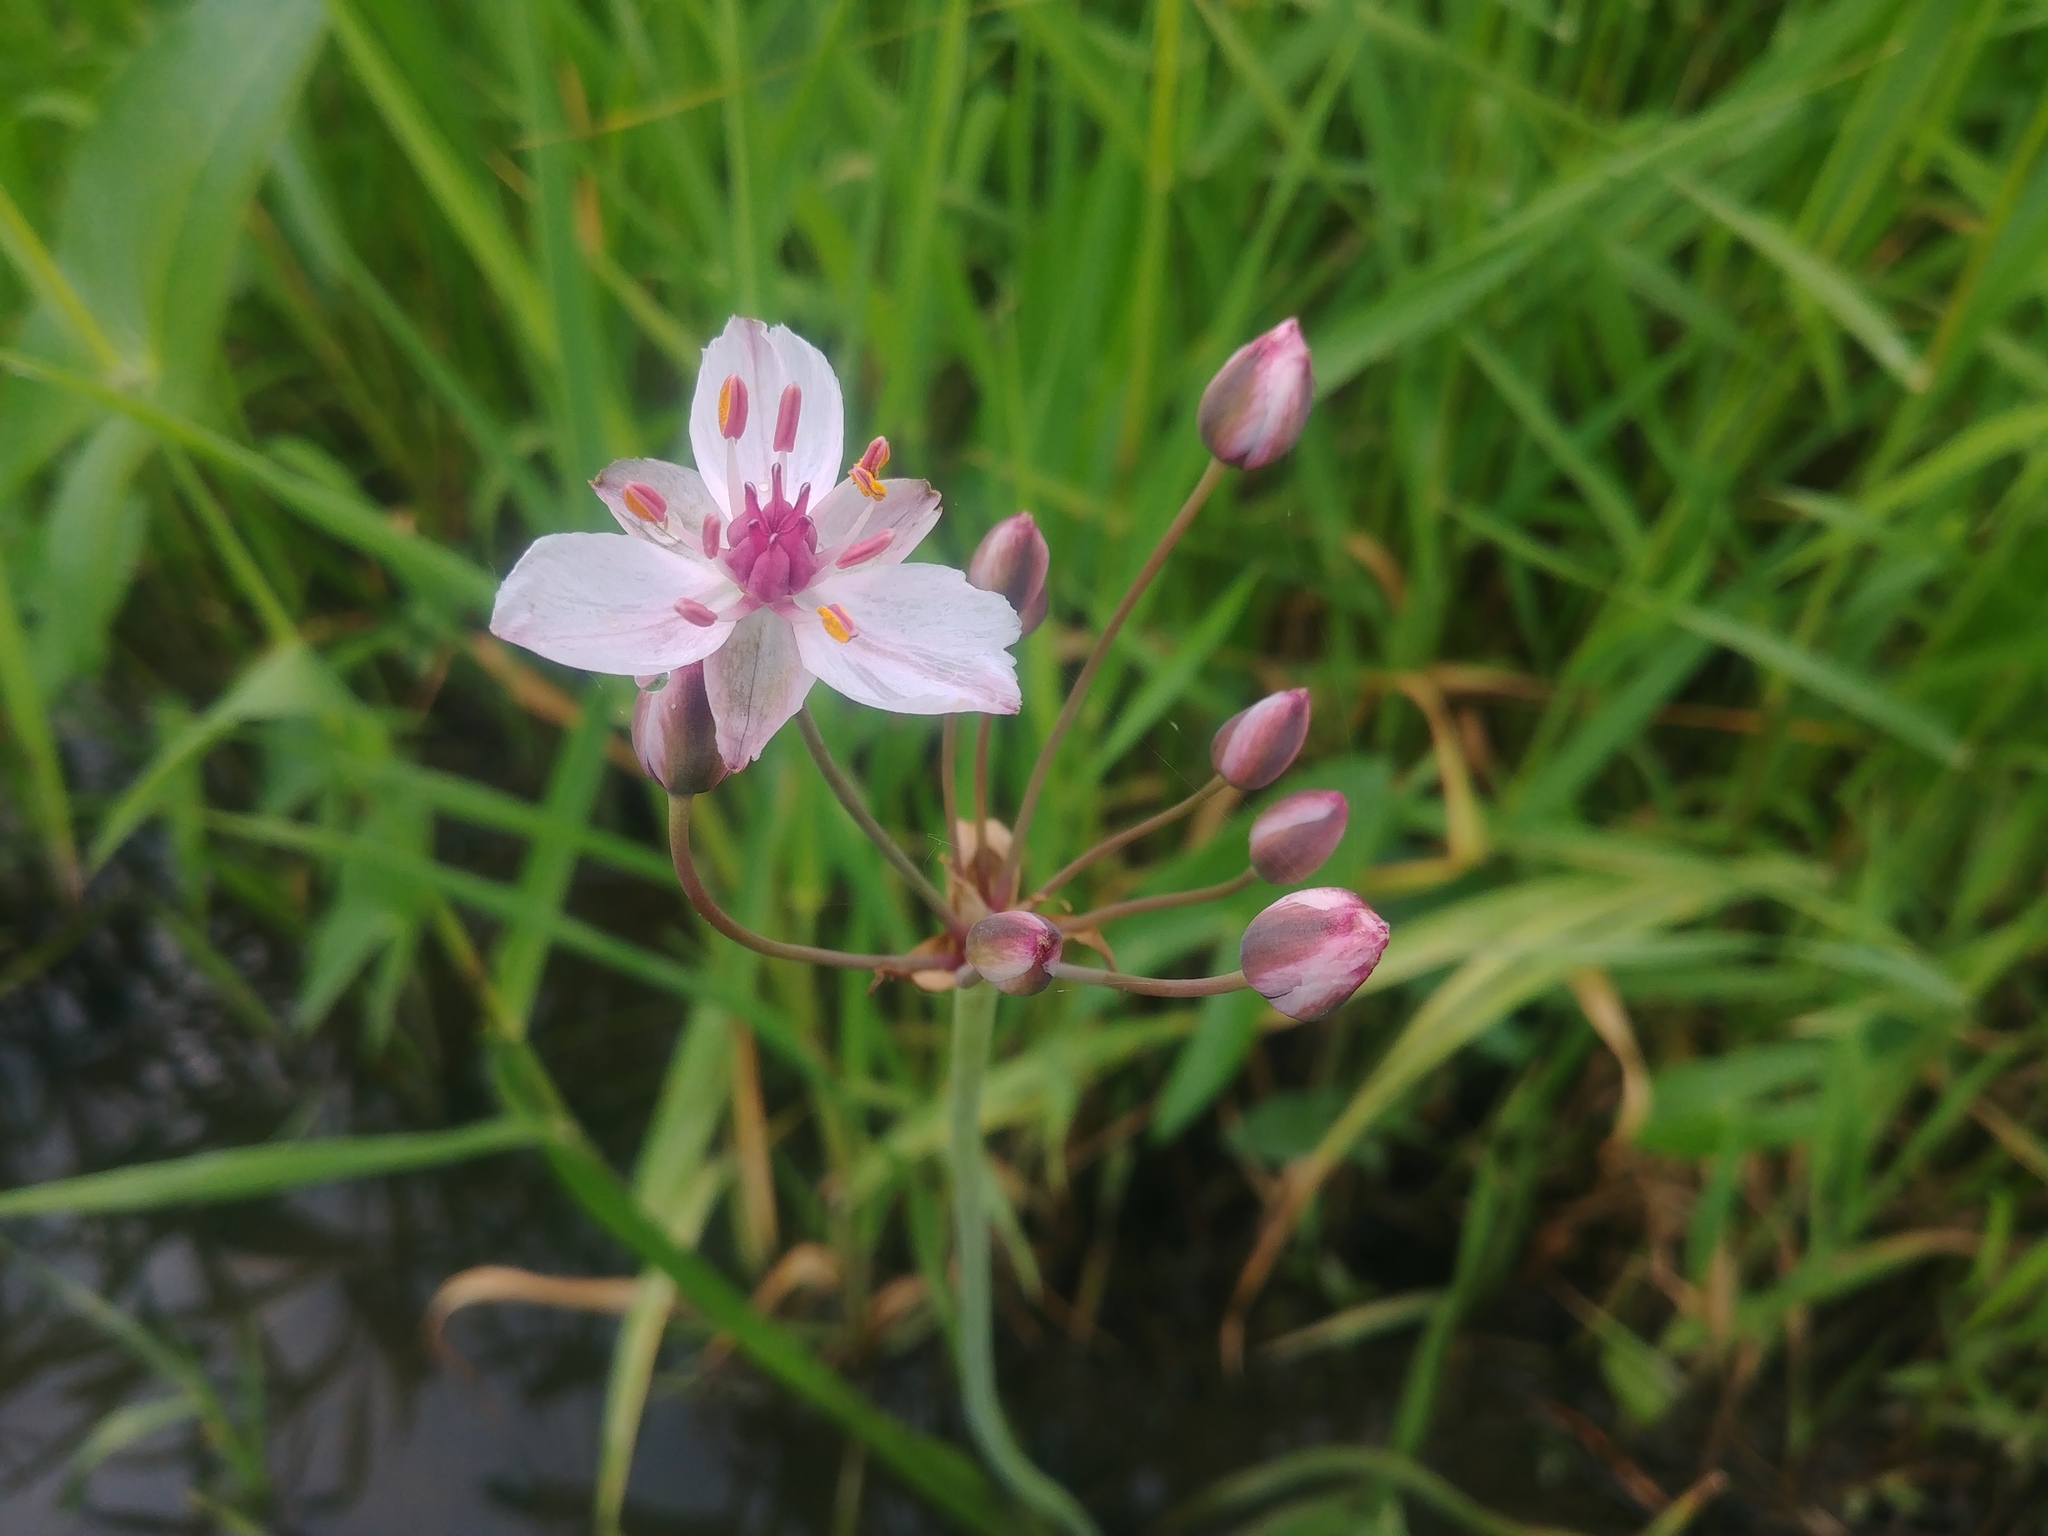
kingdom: Plantae
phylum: Tracheophyta
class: Liliopsida
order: Alismatales
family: Butomaceae
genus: Butomus
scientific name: Butomus umbellatus
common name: Flowering-rush
